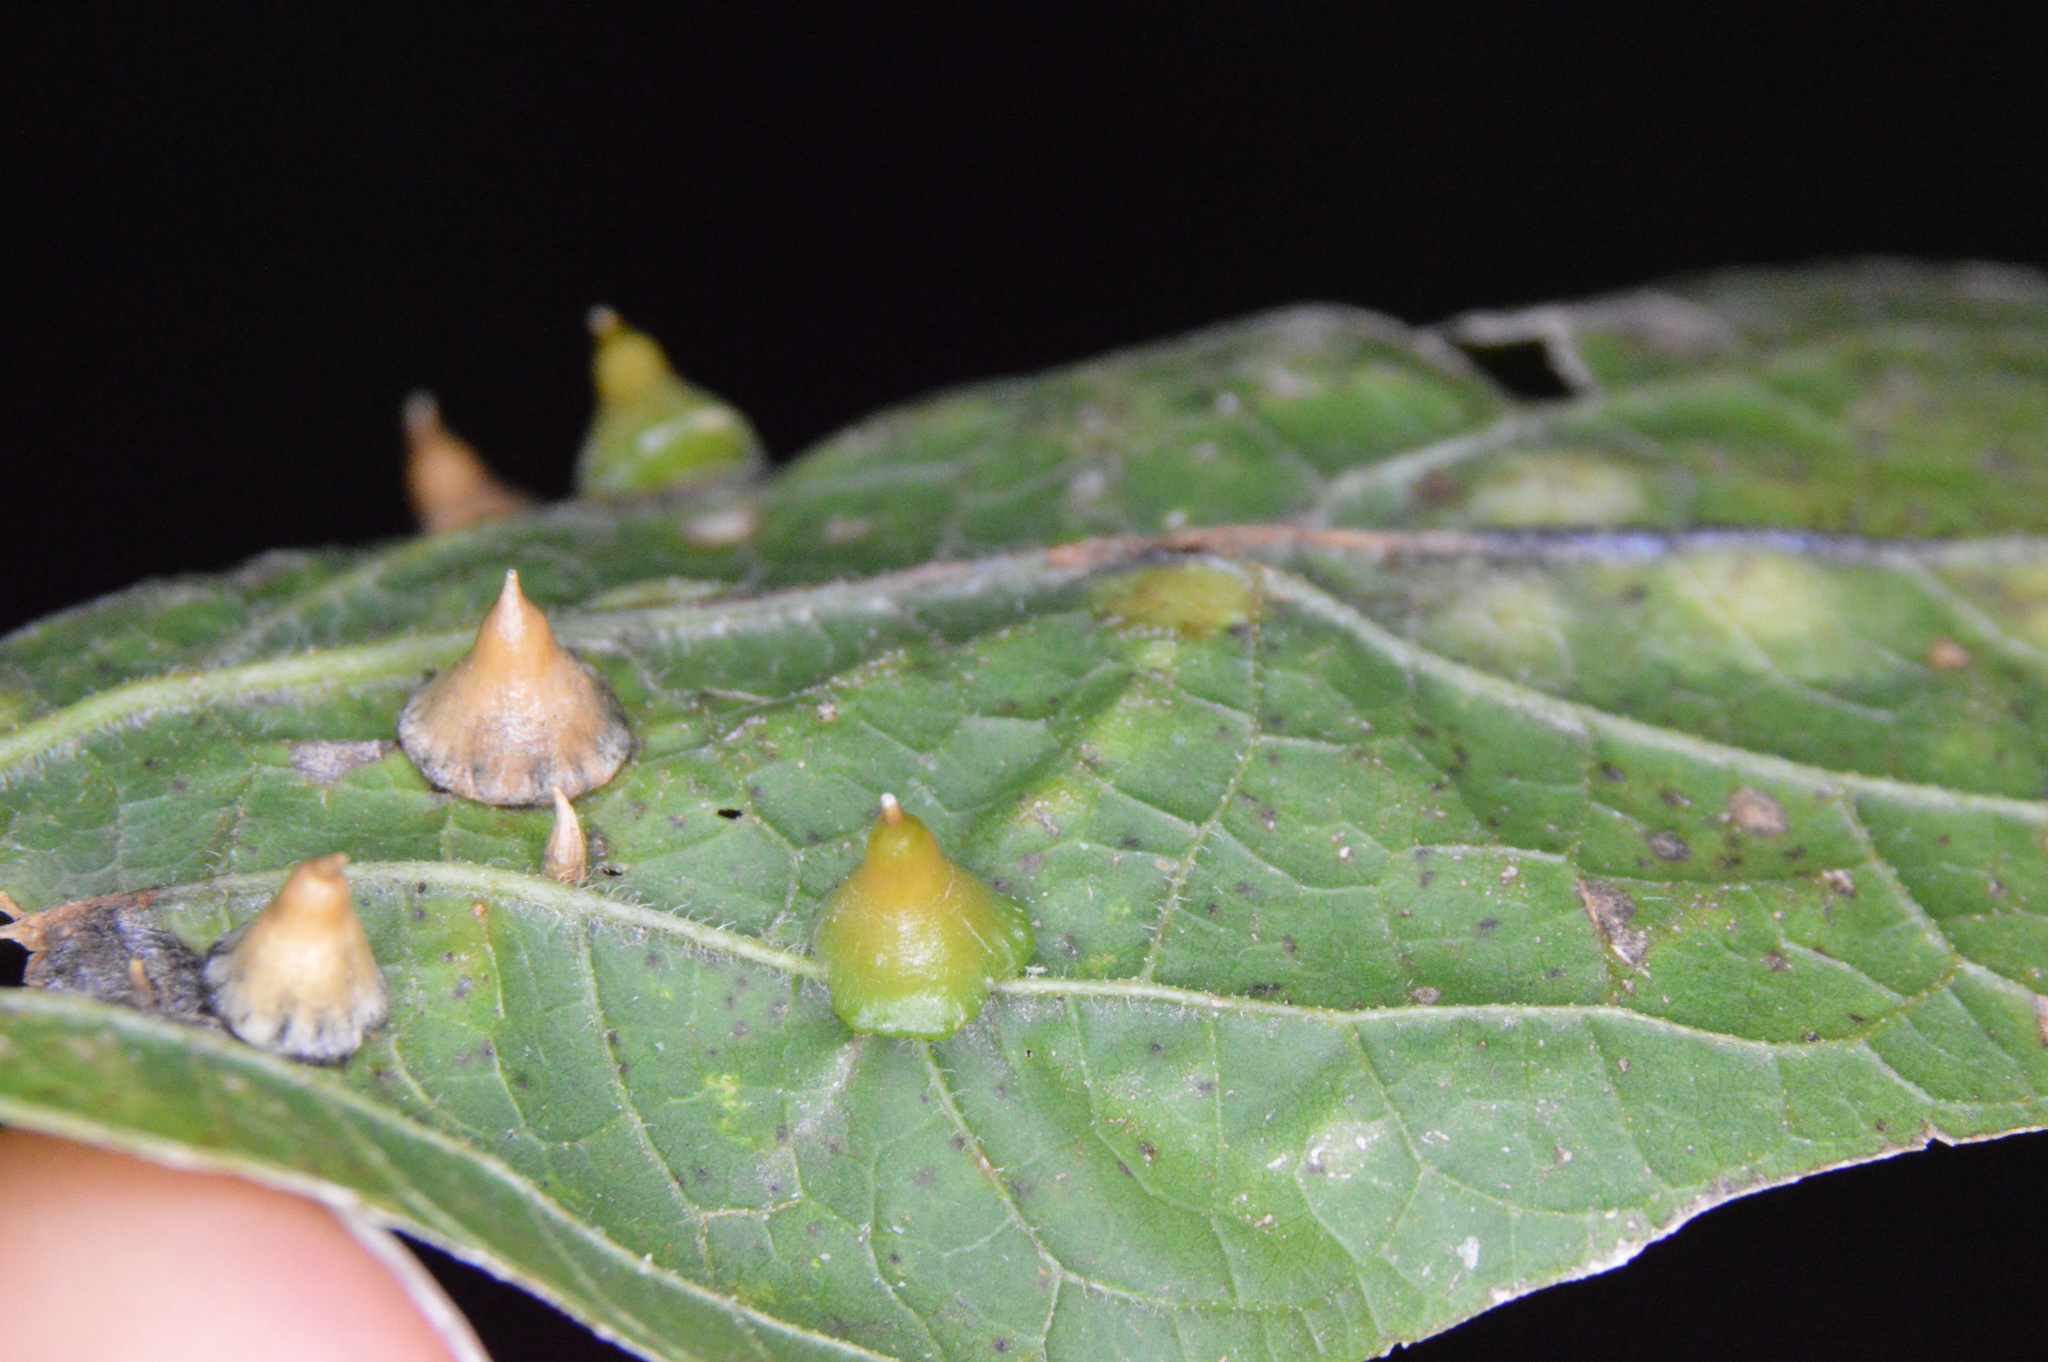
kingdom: Animalia
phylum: Arthropoda
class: Insecta
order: Diptera
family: Cecidomyiidae
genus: Celticecis
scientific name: Celticecis spiniformis
